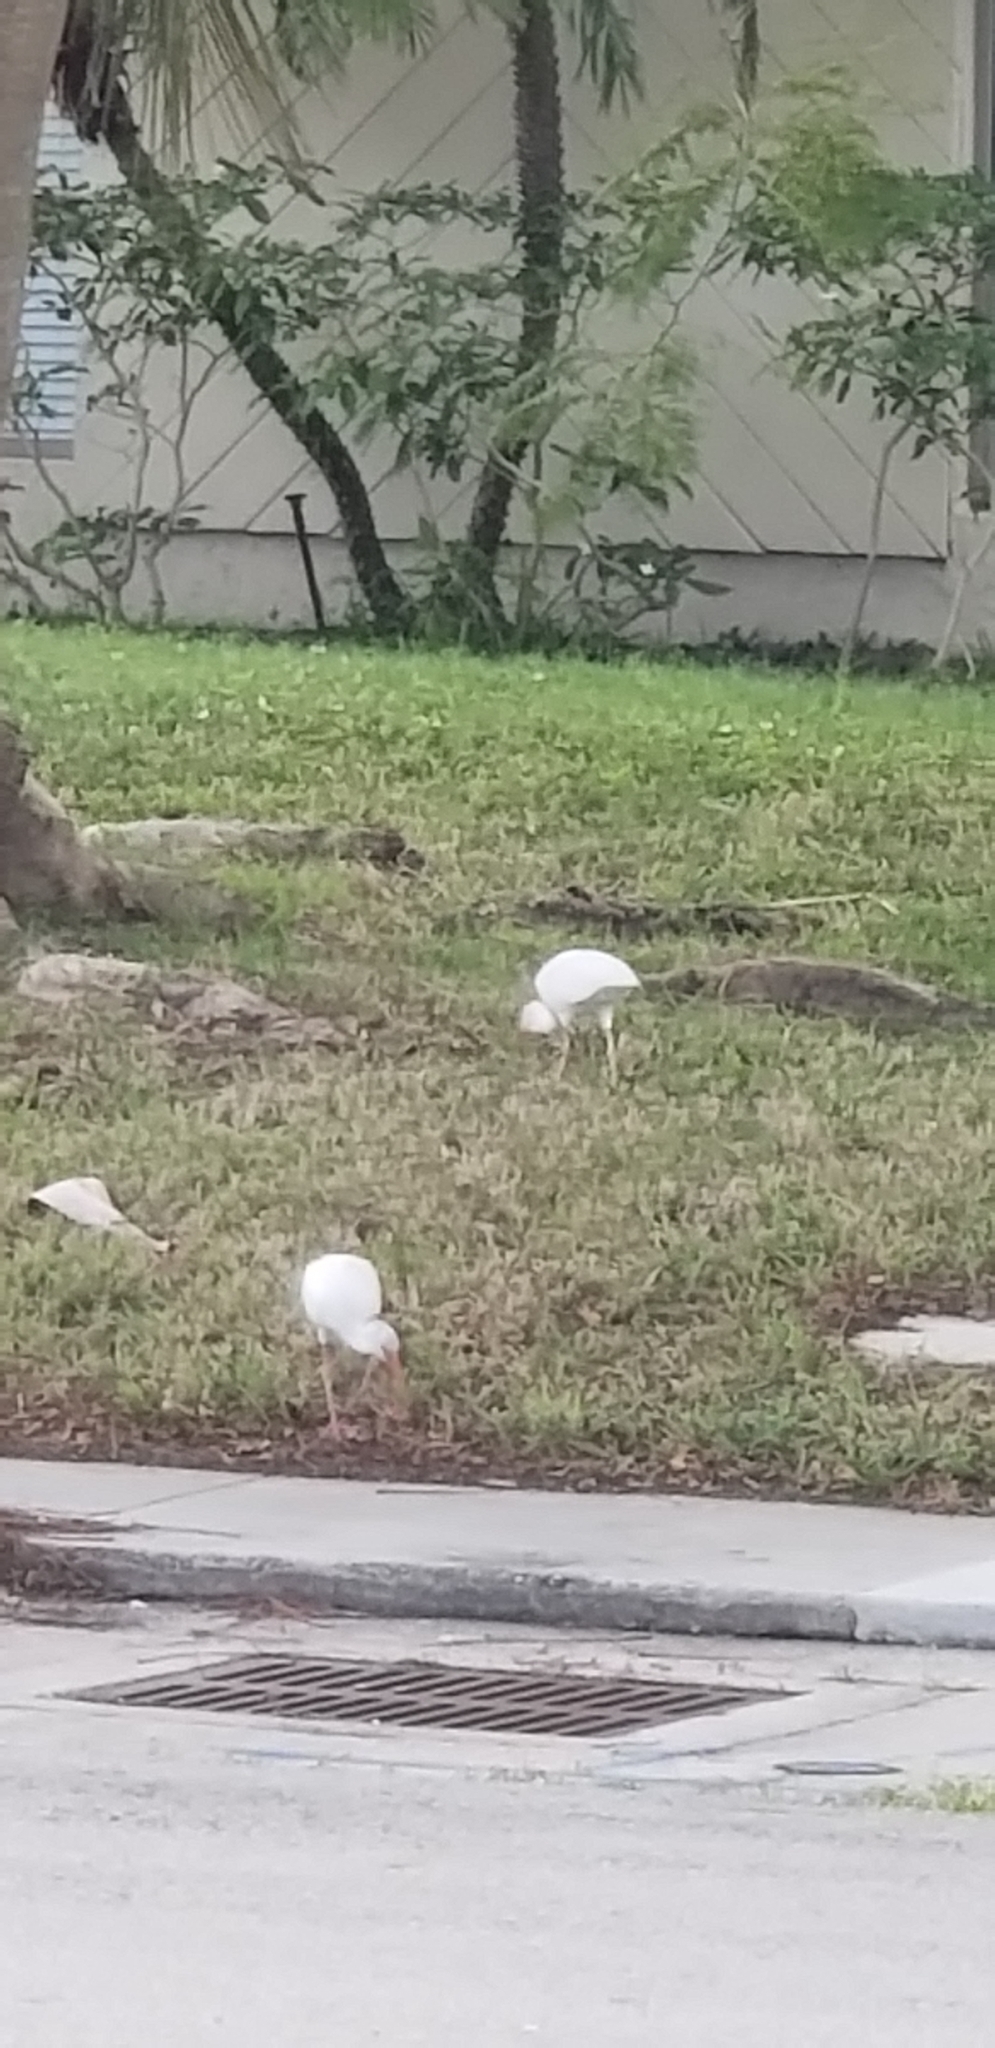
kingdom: Animalia
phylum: Chordata
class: Aves
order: Pelecaniformes
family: Threskiornithidae
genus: Eudocimus
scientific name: Eudocimus albus
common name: White ibis
